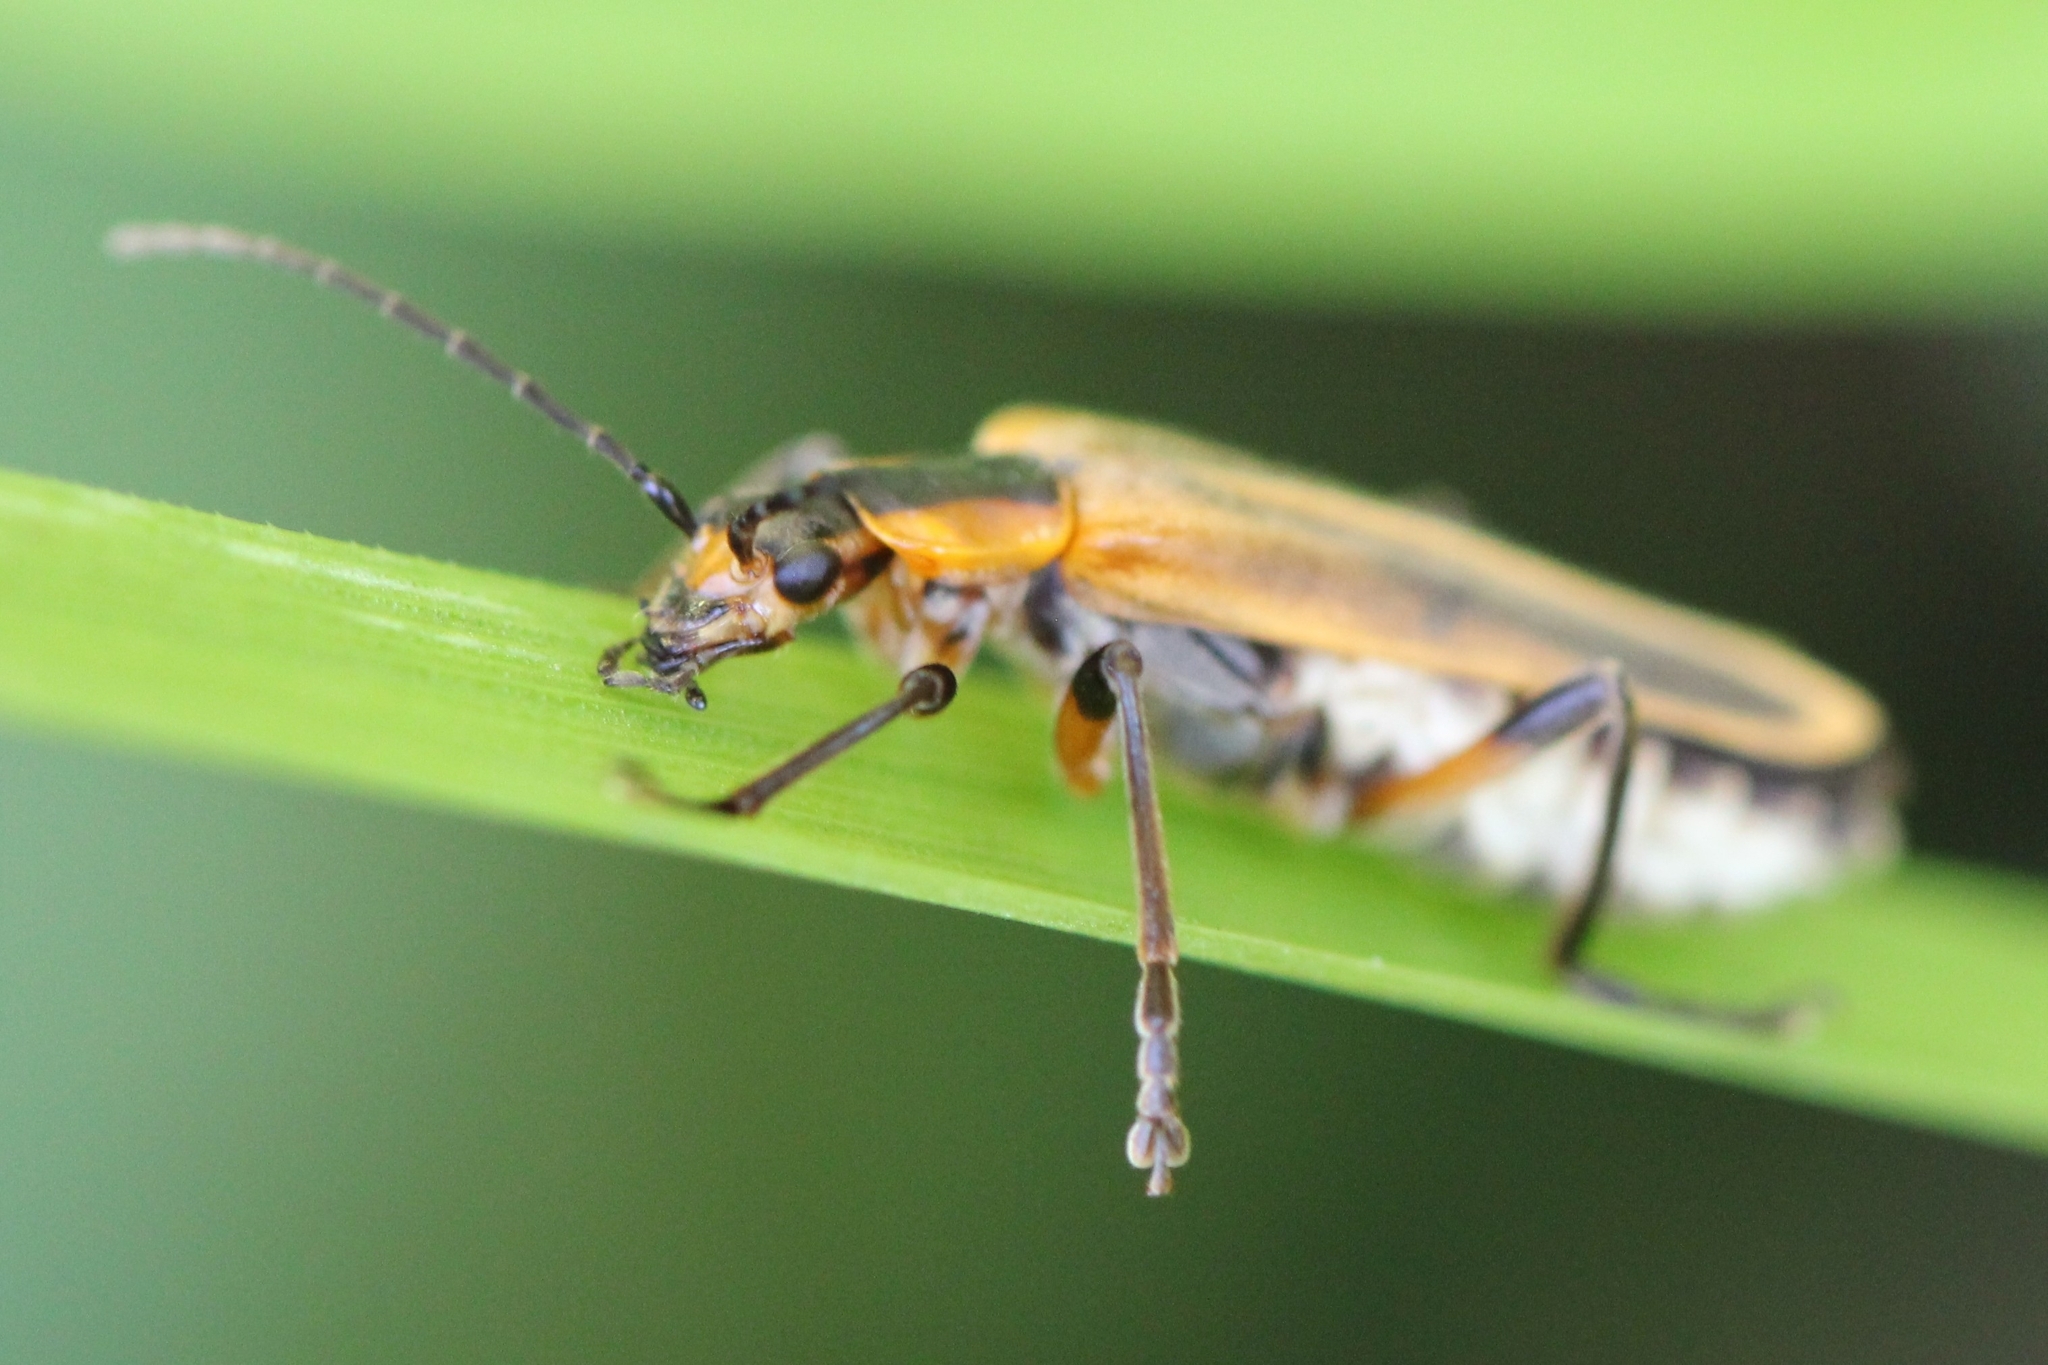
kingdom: Animalia
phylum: Arthropoda
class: Insecta
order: Coleoptera
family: Cantharidae
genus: Chauliognathus
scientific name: Chauliognathus marginatus
